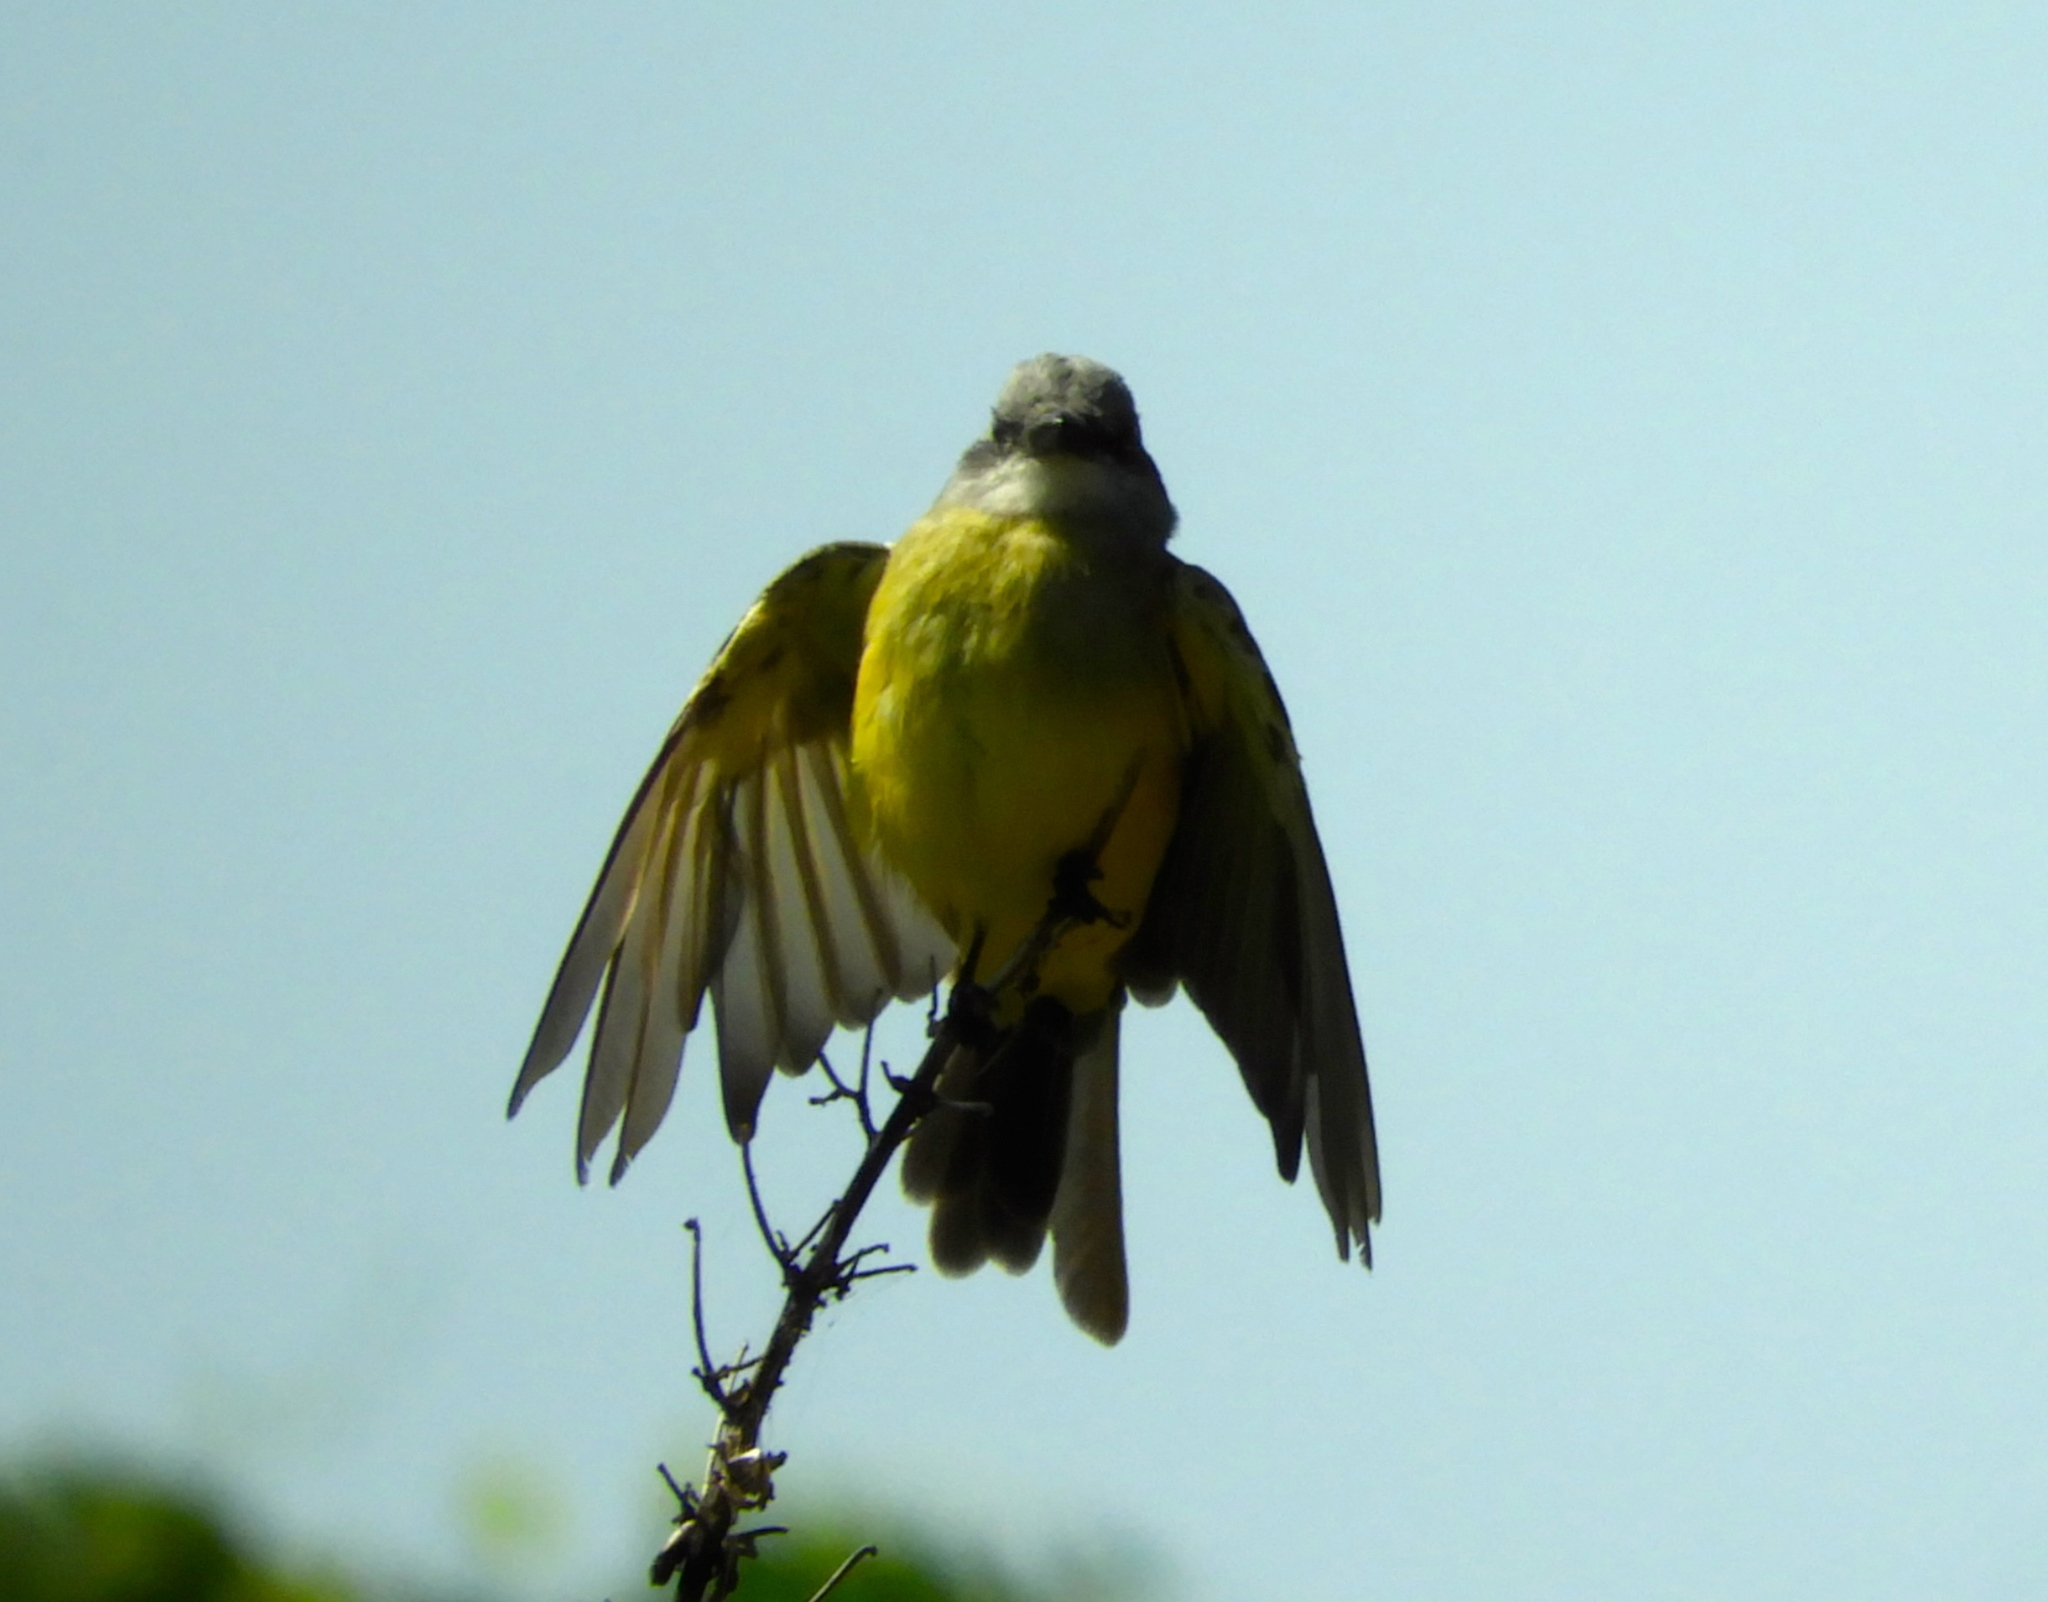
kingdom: Animalia
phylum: Chordata
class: Aves
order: Passeriformes
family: Tyrannidae
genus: Tyrannus
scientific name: Tyrannus melancholicus
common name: Tropical kingbird
